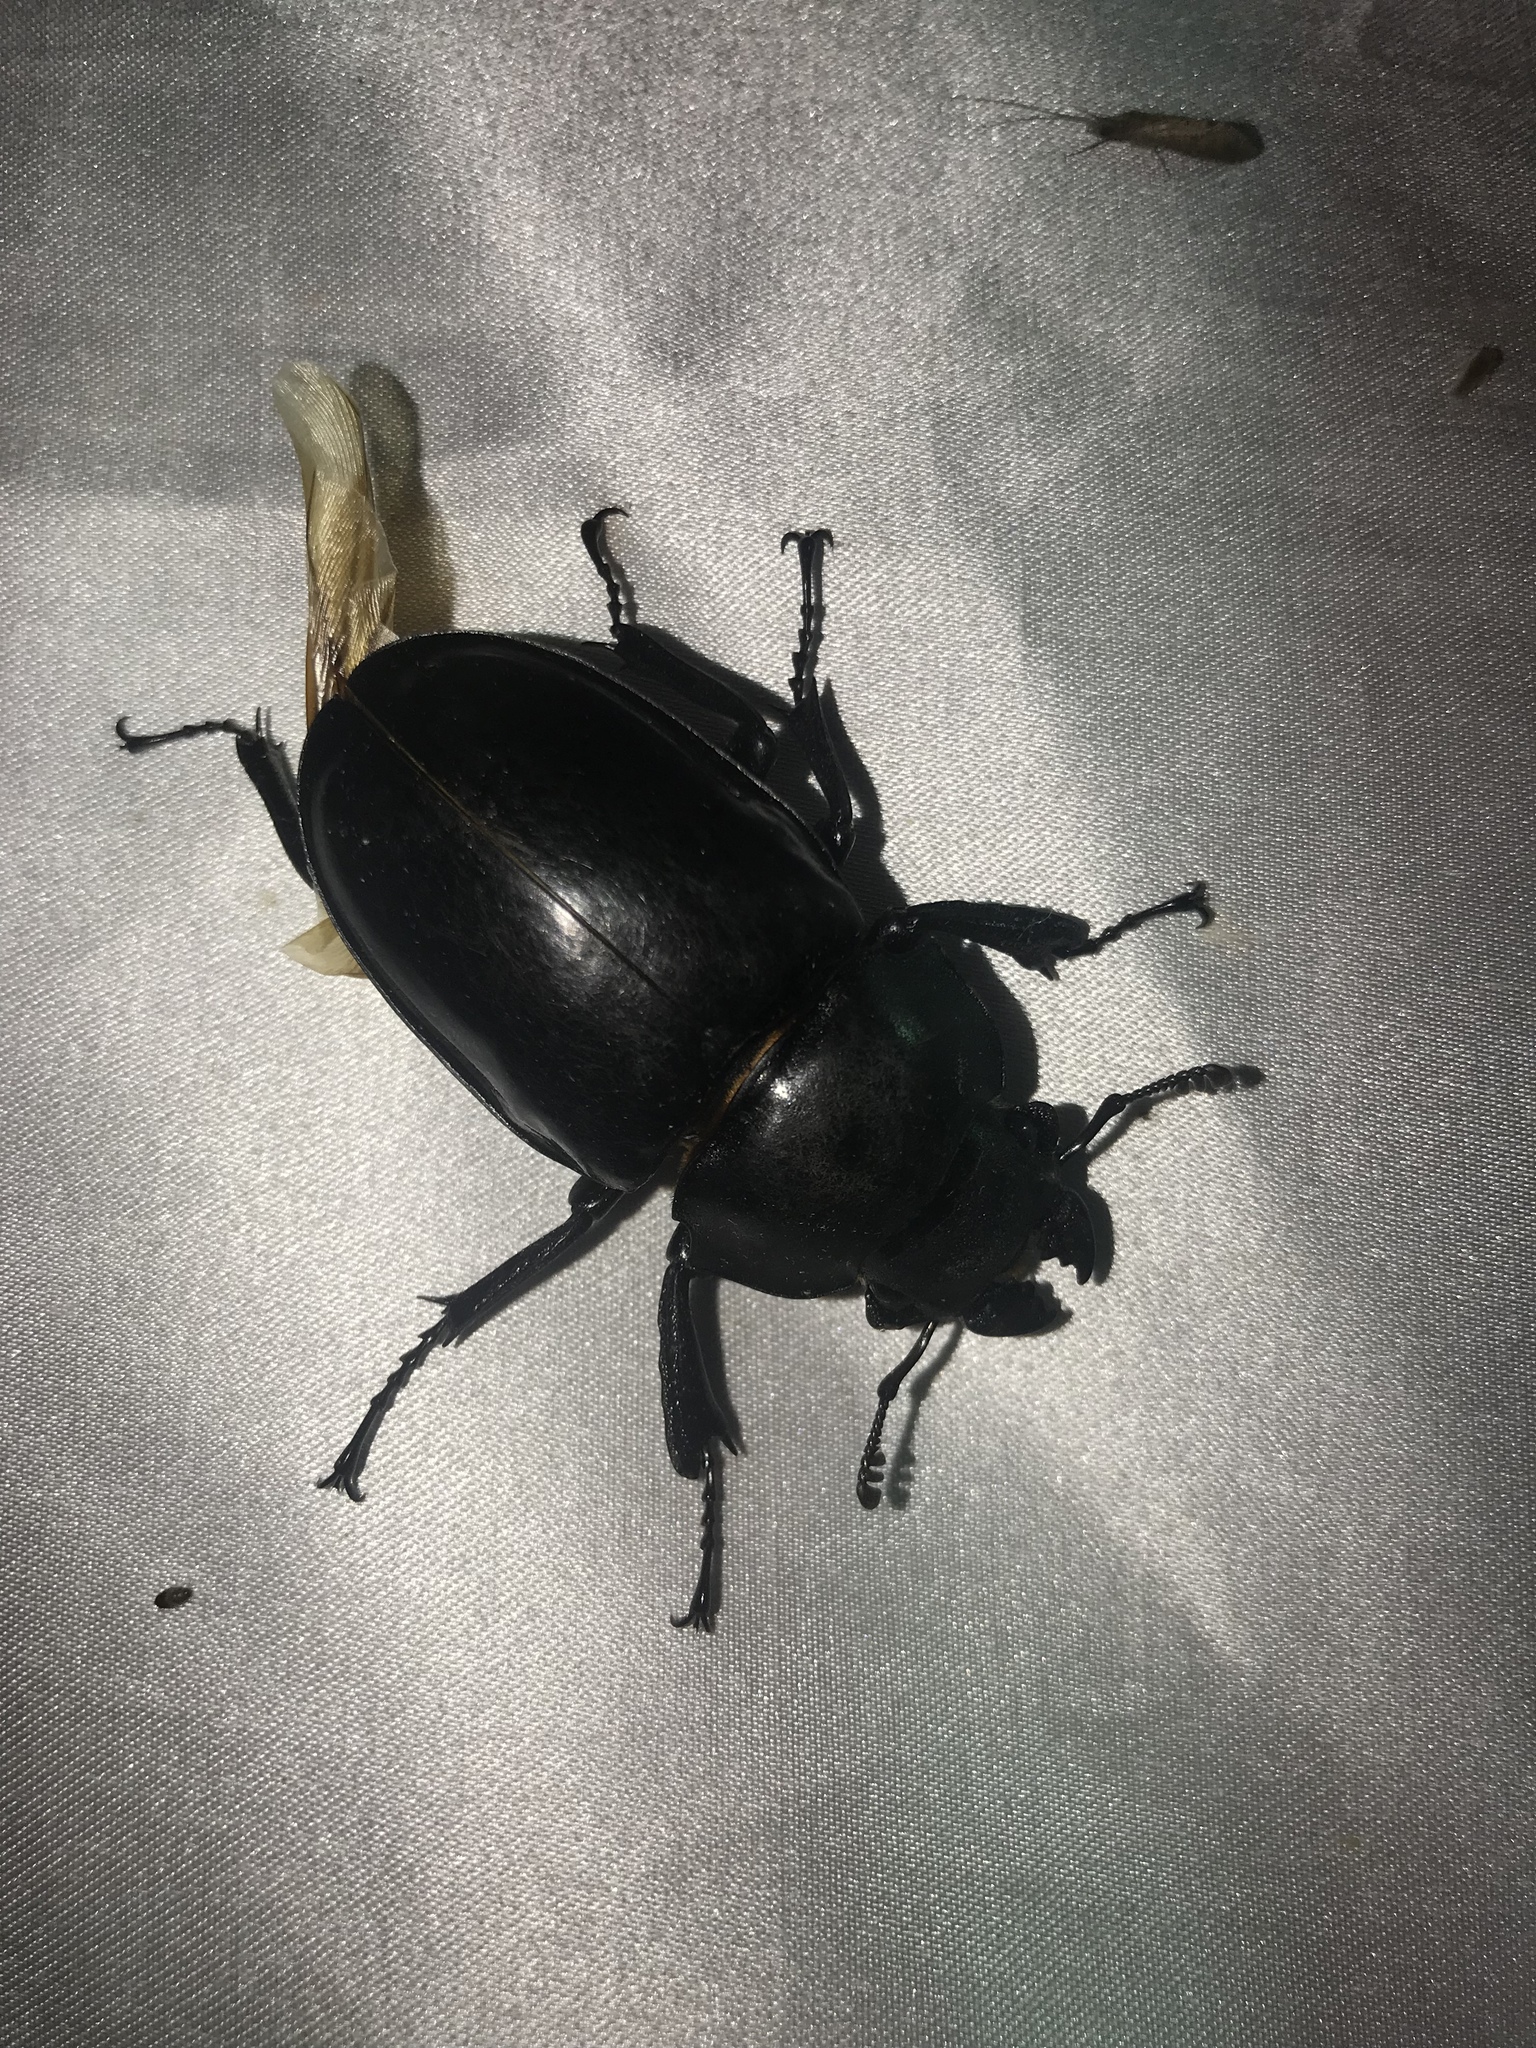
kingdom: Animalia
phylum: Arthropoda
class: Insecta
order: Coleoptera
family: Lucanidae
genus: Odontolabis
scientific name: Odontolabis siva
